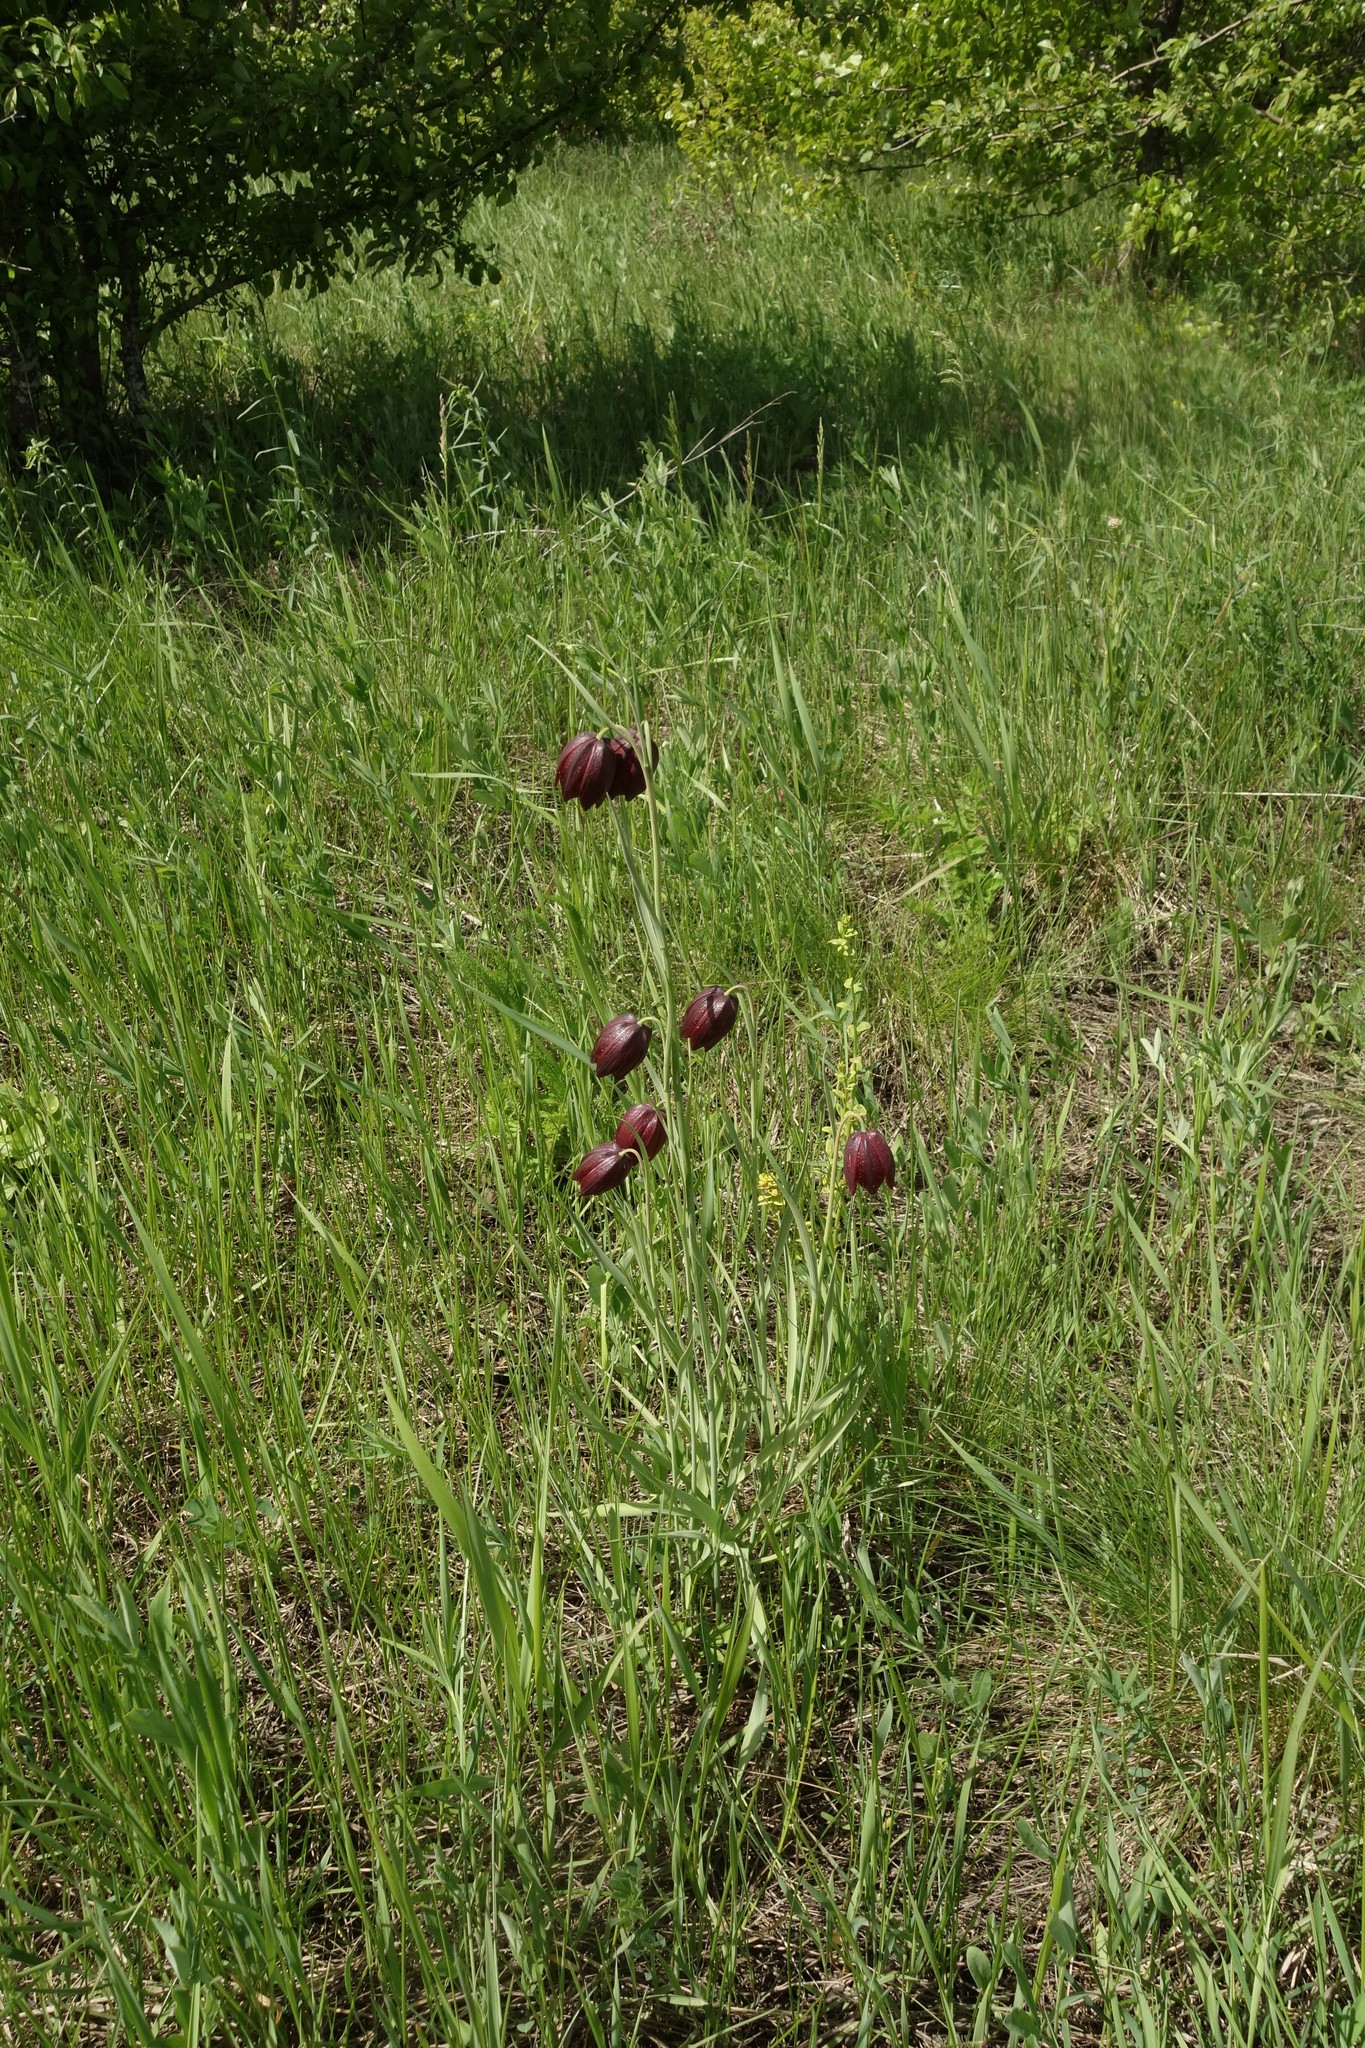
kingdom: Plantae
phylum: Tracheophyta
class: Liliopsida
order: Liliales
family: Liliaceae
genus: Fritillaria
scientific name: Fritillaria meleagroides
